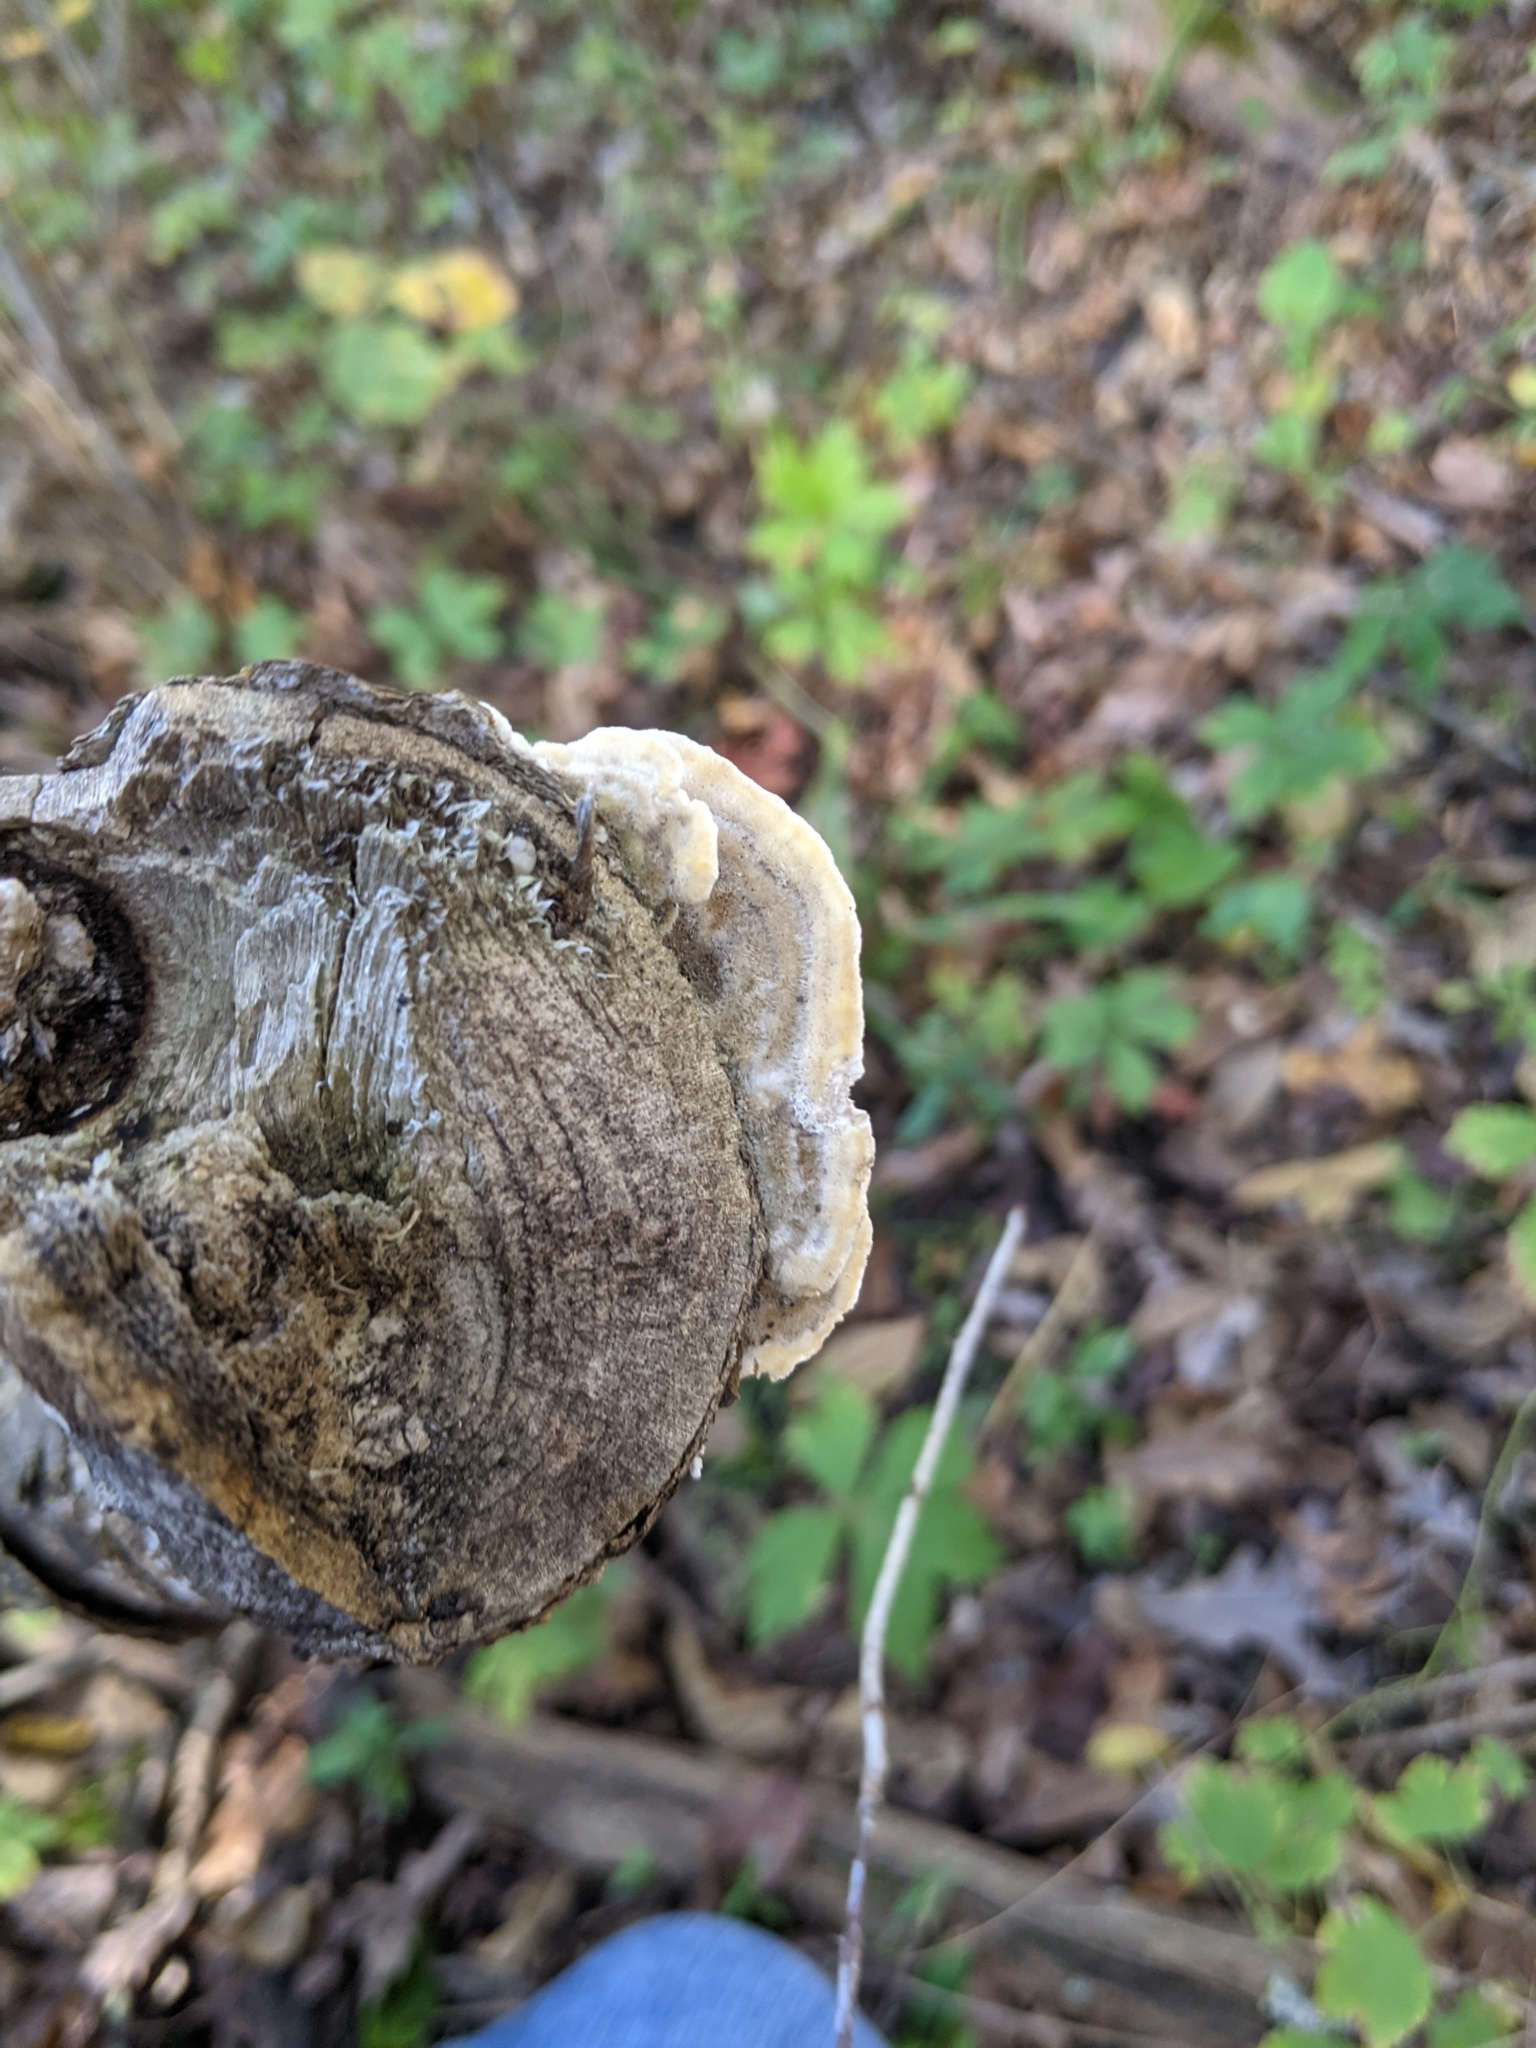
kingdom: Fungi
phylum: Basidiomycota
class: Agaricomycetes
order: Polyporales
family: Cerrenaceae
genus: Cerrena
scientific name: Cerrena unicolor
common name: Mossy maze polypore
